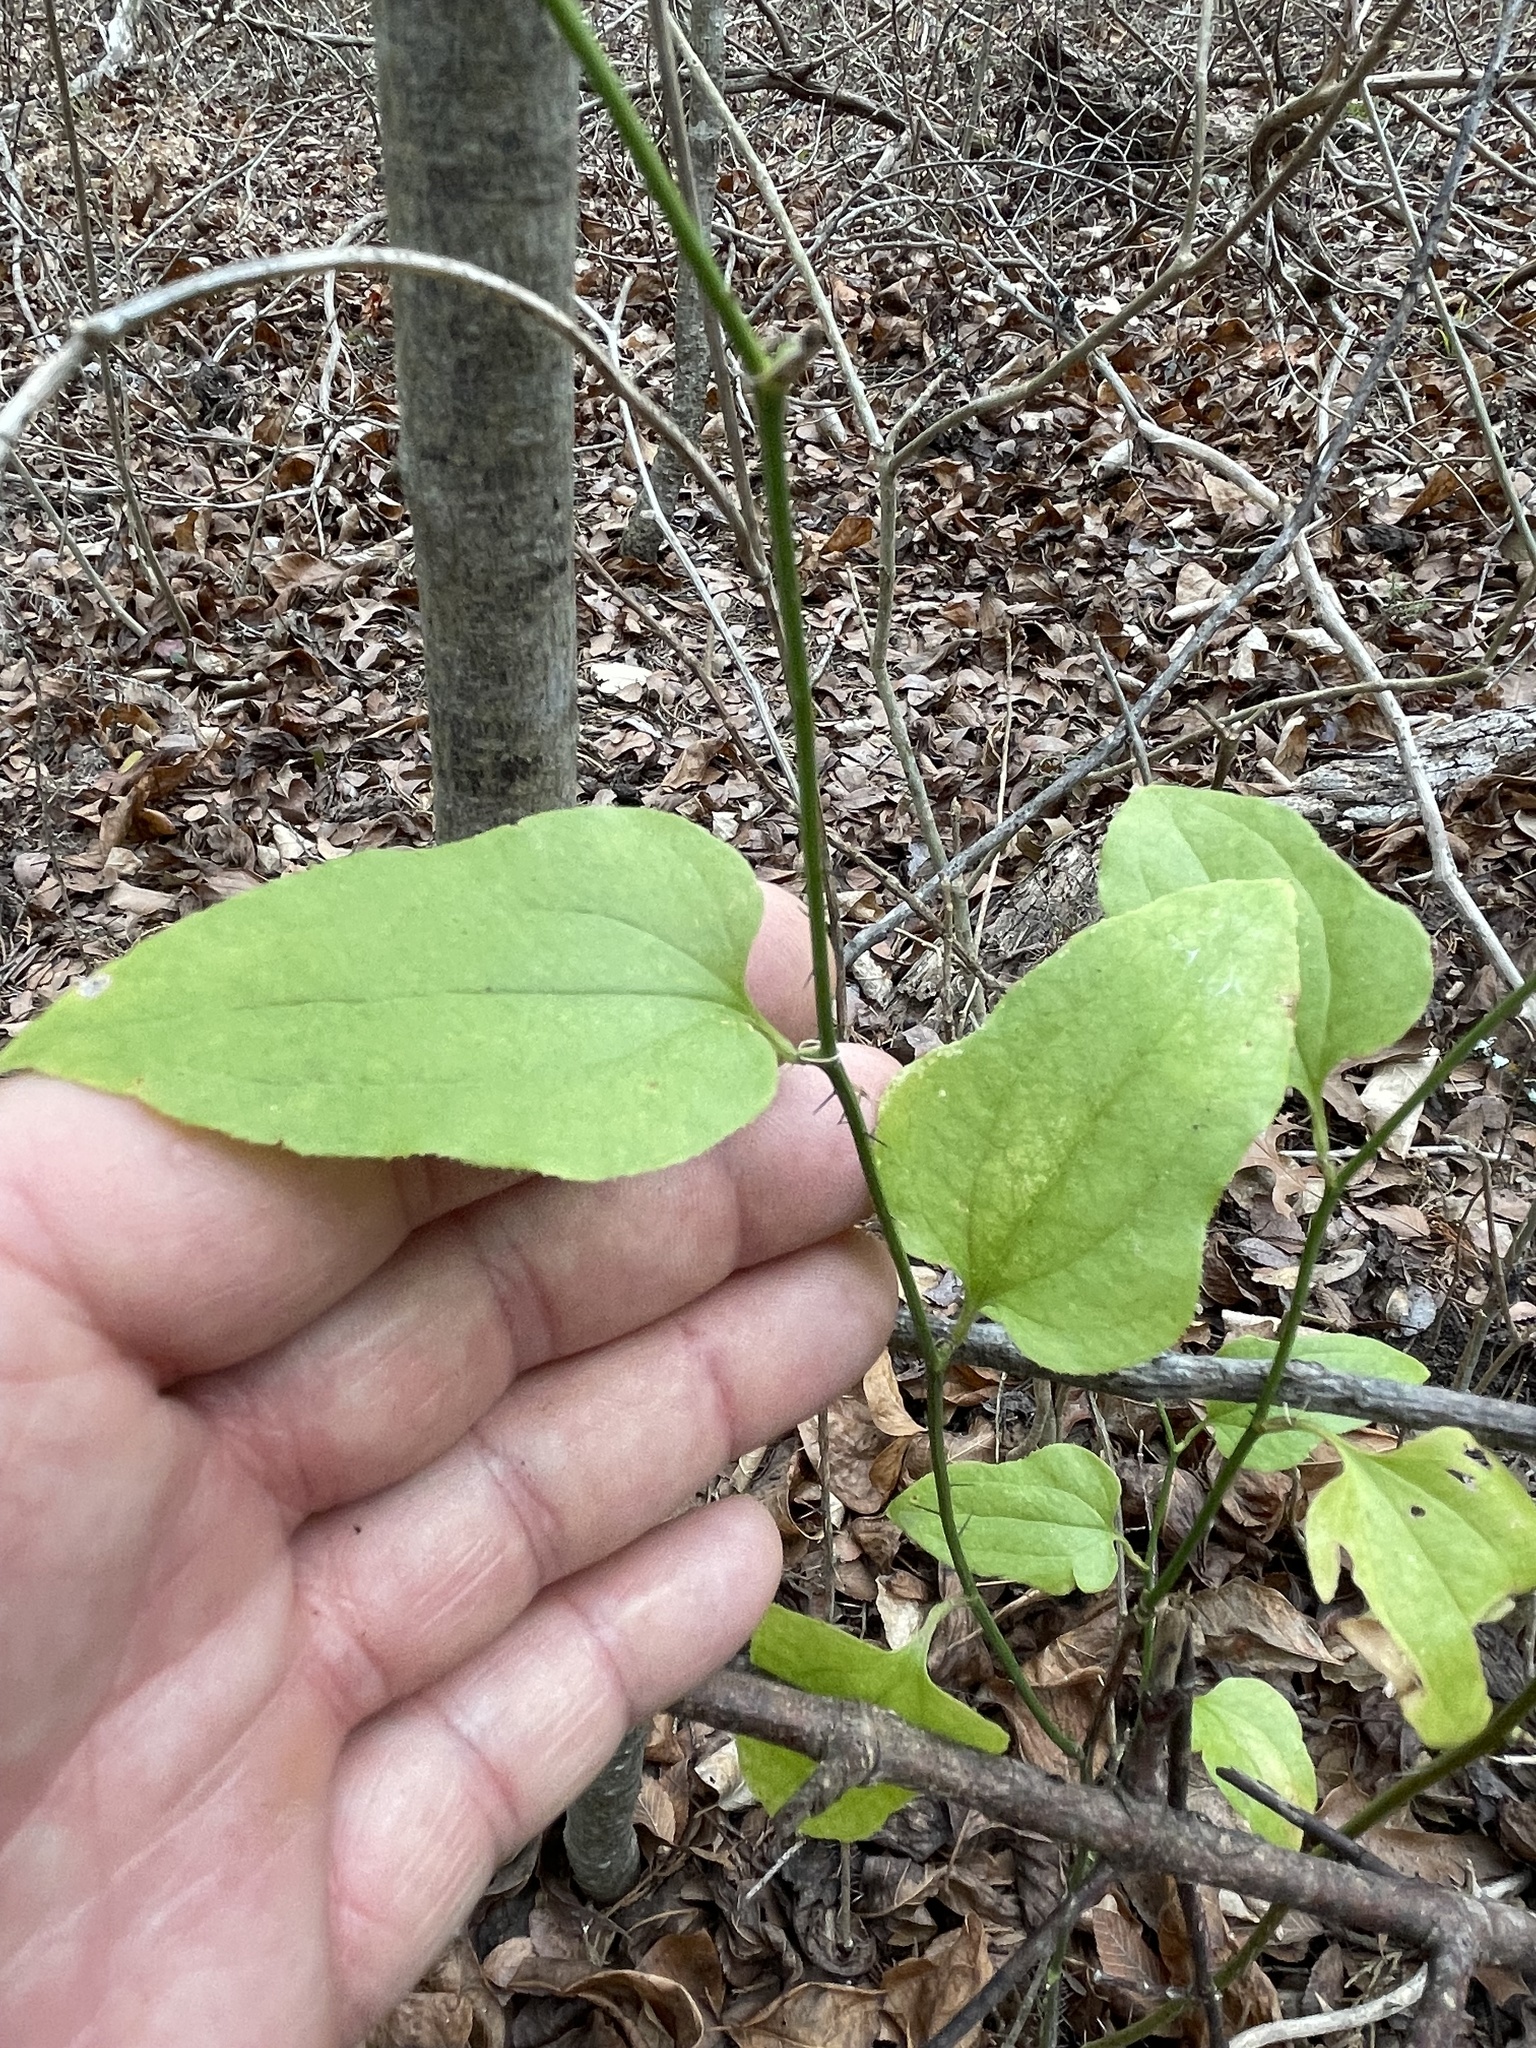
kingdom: Plantae
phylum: Tracheophyta
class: Liliopsida
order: Liliales
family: Smilacaceae
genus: Smilax
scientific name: Smilax tamnoides
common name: Hellfetter
